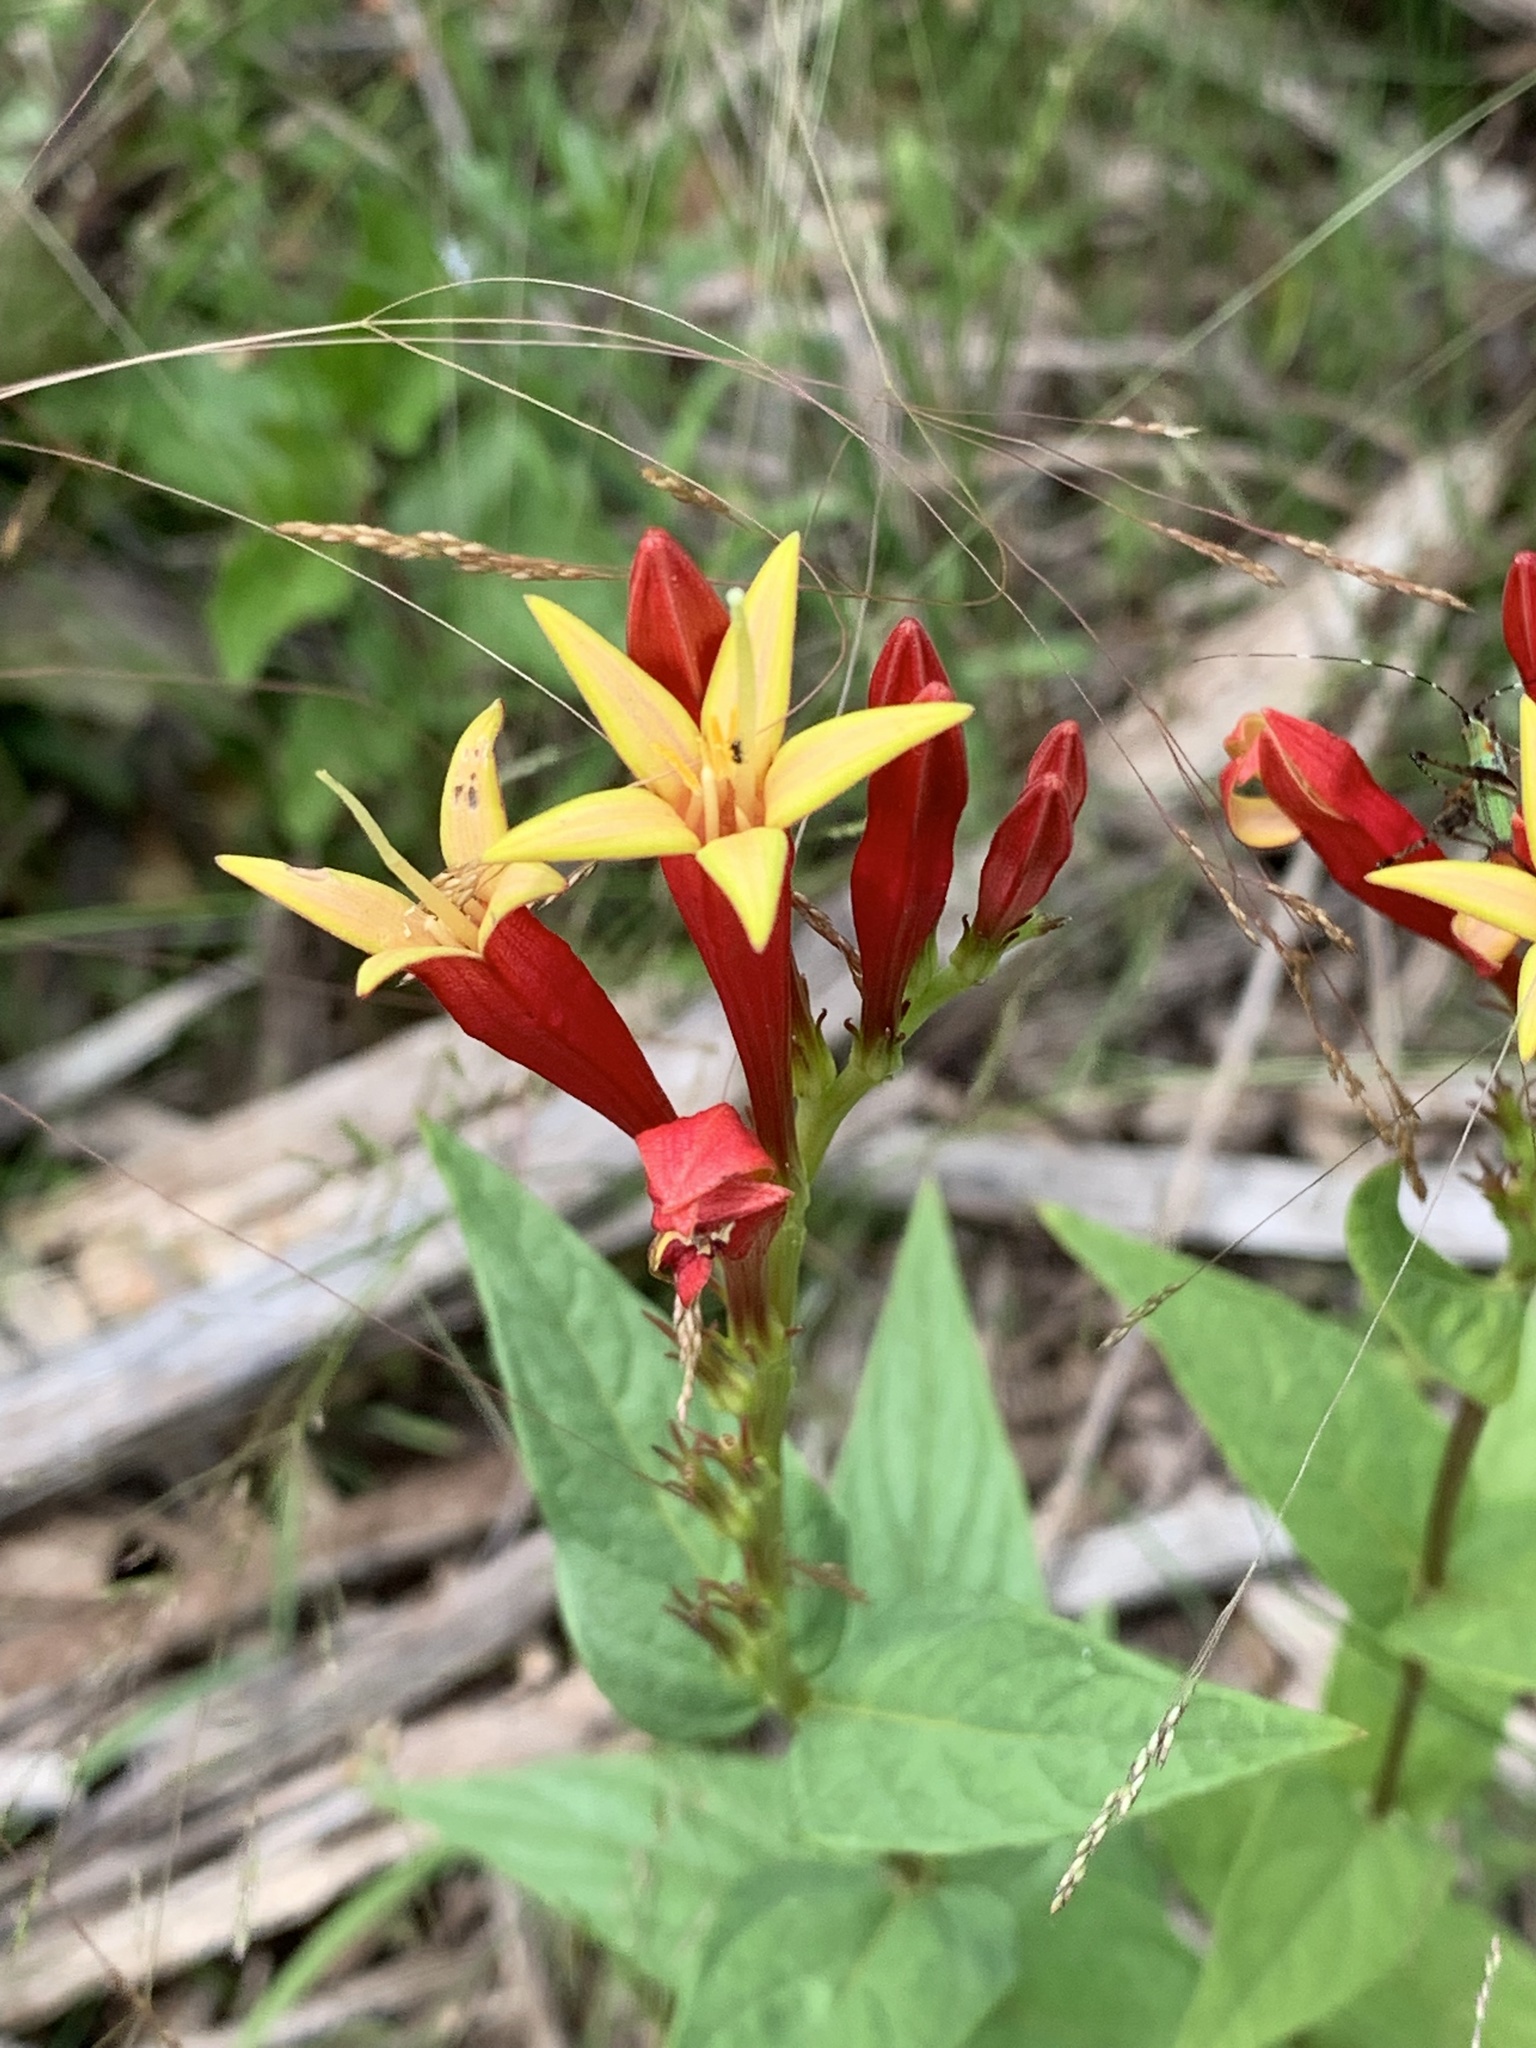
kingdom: Plantae
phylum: Tracheophyta
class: Magnoliopsida
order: Gentianales
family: Loganiaceae
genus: Spigelia
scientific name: Spigelia marilandica
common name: Indian-pink
